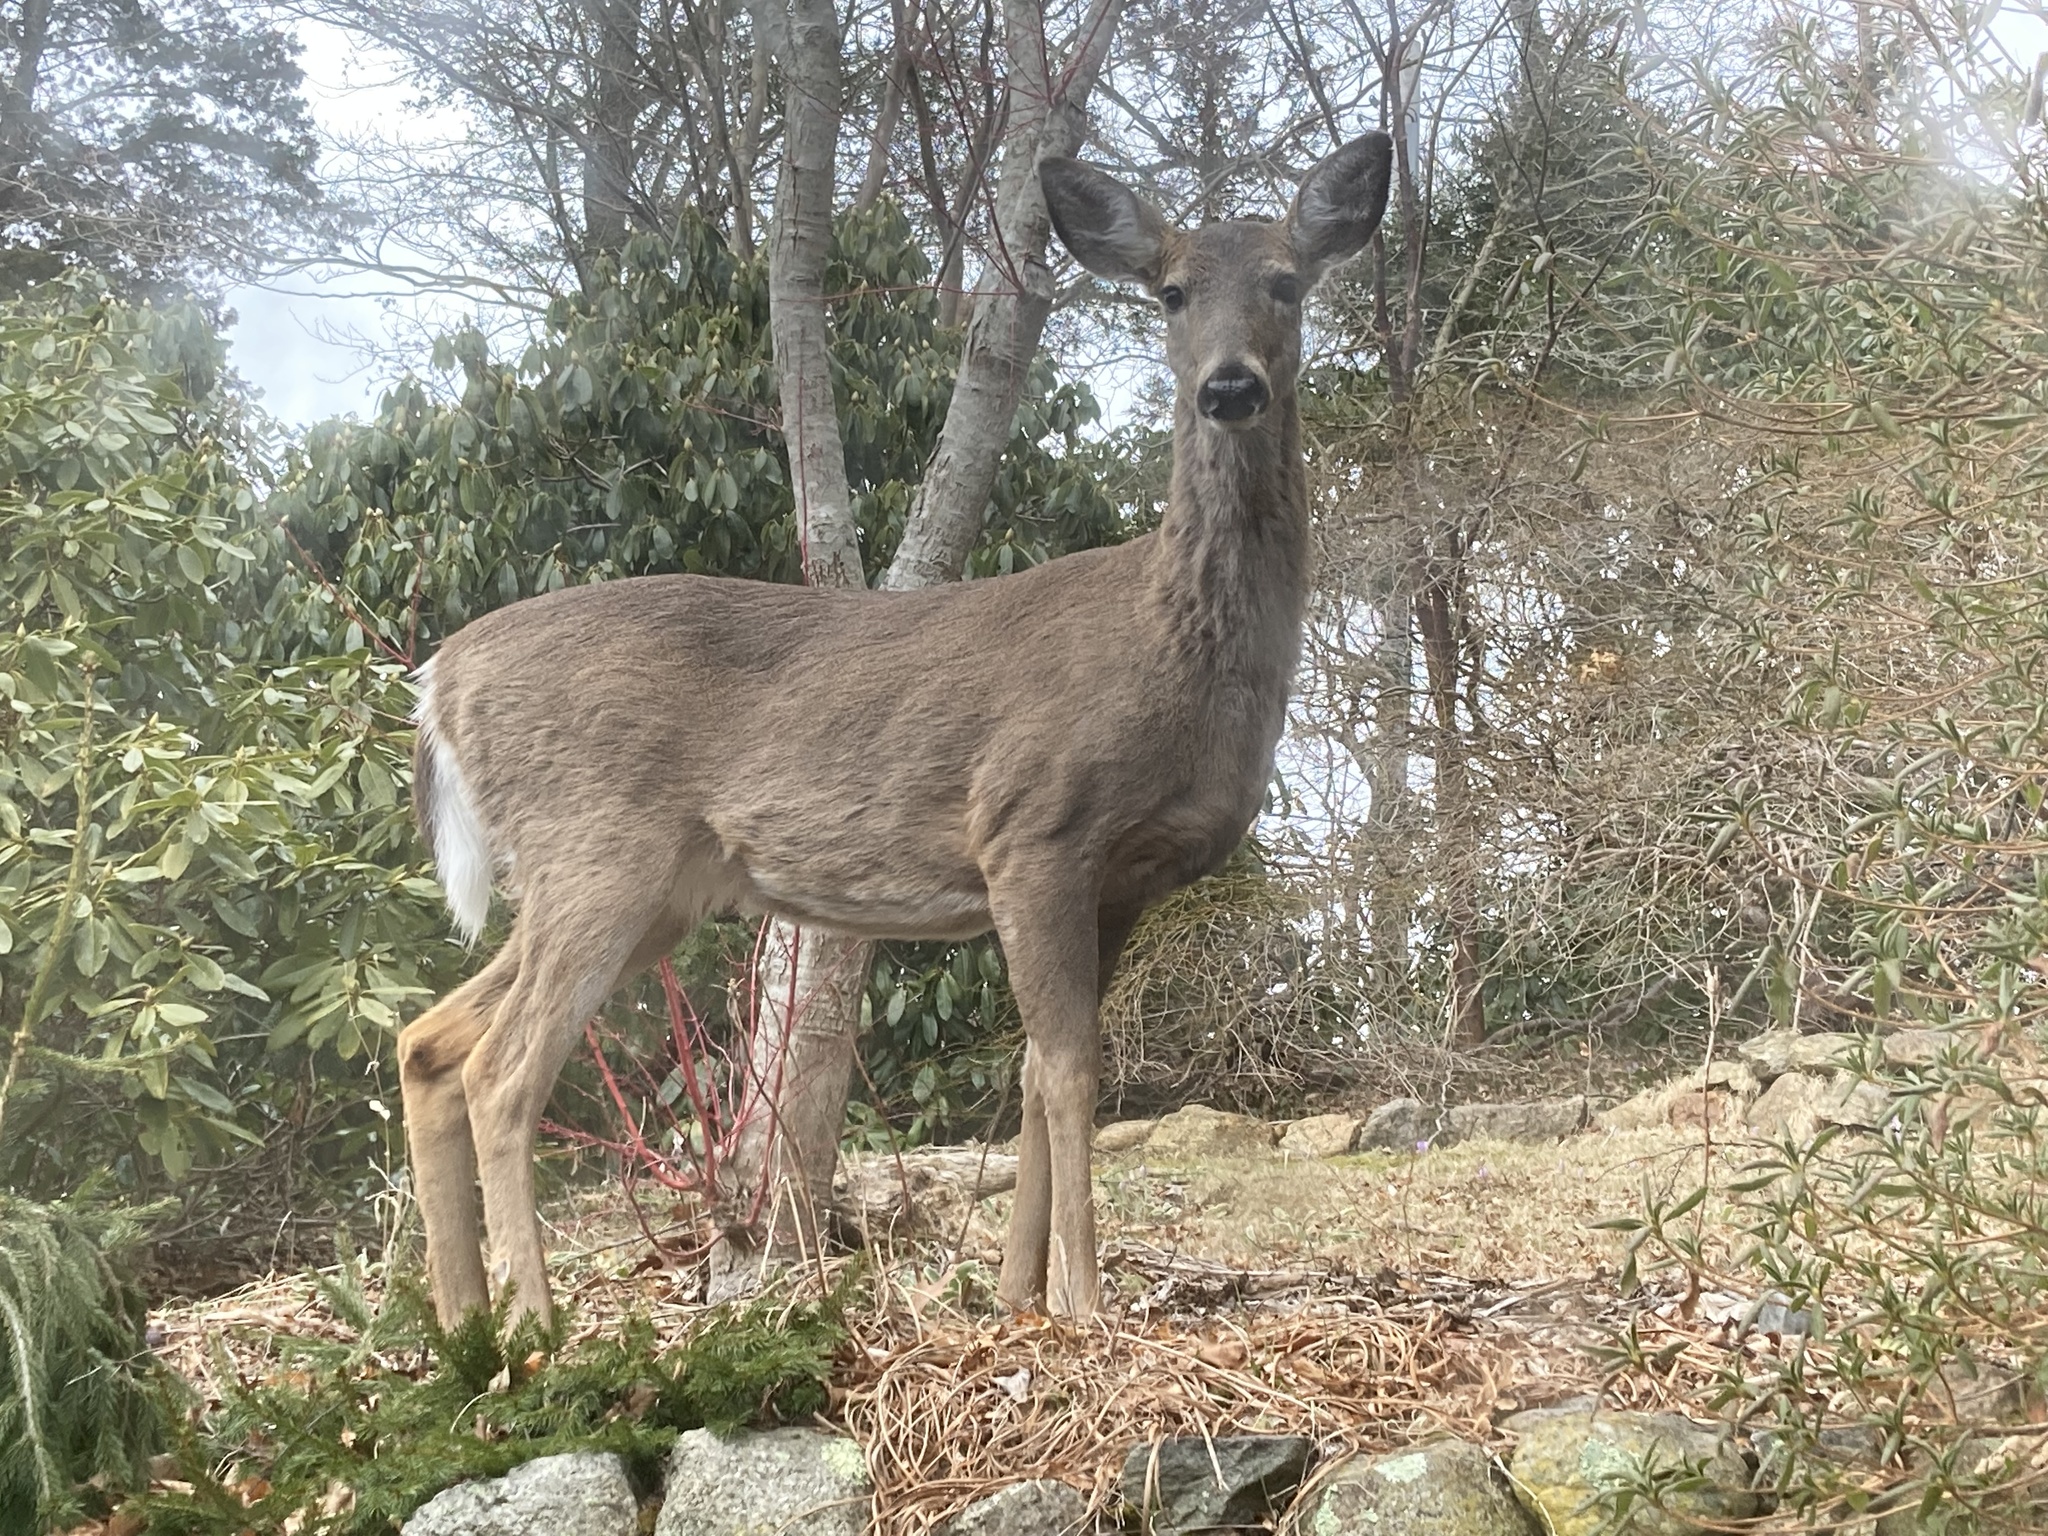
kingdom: Animalia
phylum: Chordata
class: Mammalia
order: Artiodactyla
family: Cervidae
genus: Odocoileus
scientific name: Odocoileus virginianus
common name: White-tailed deer
